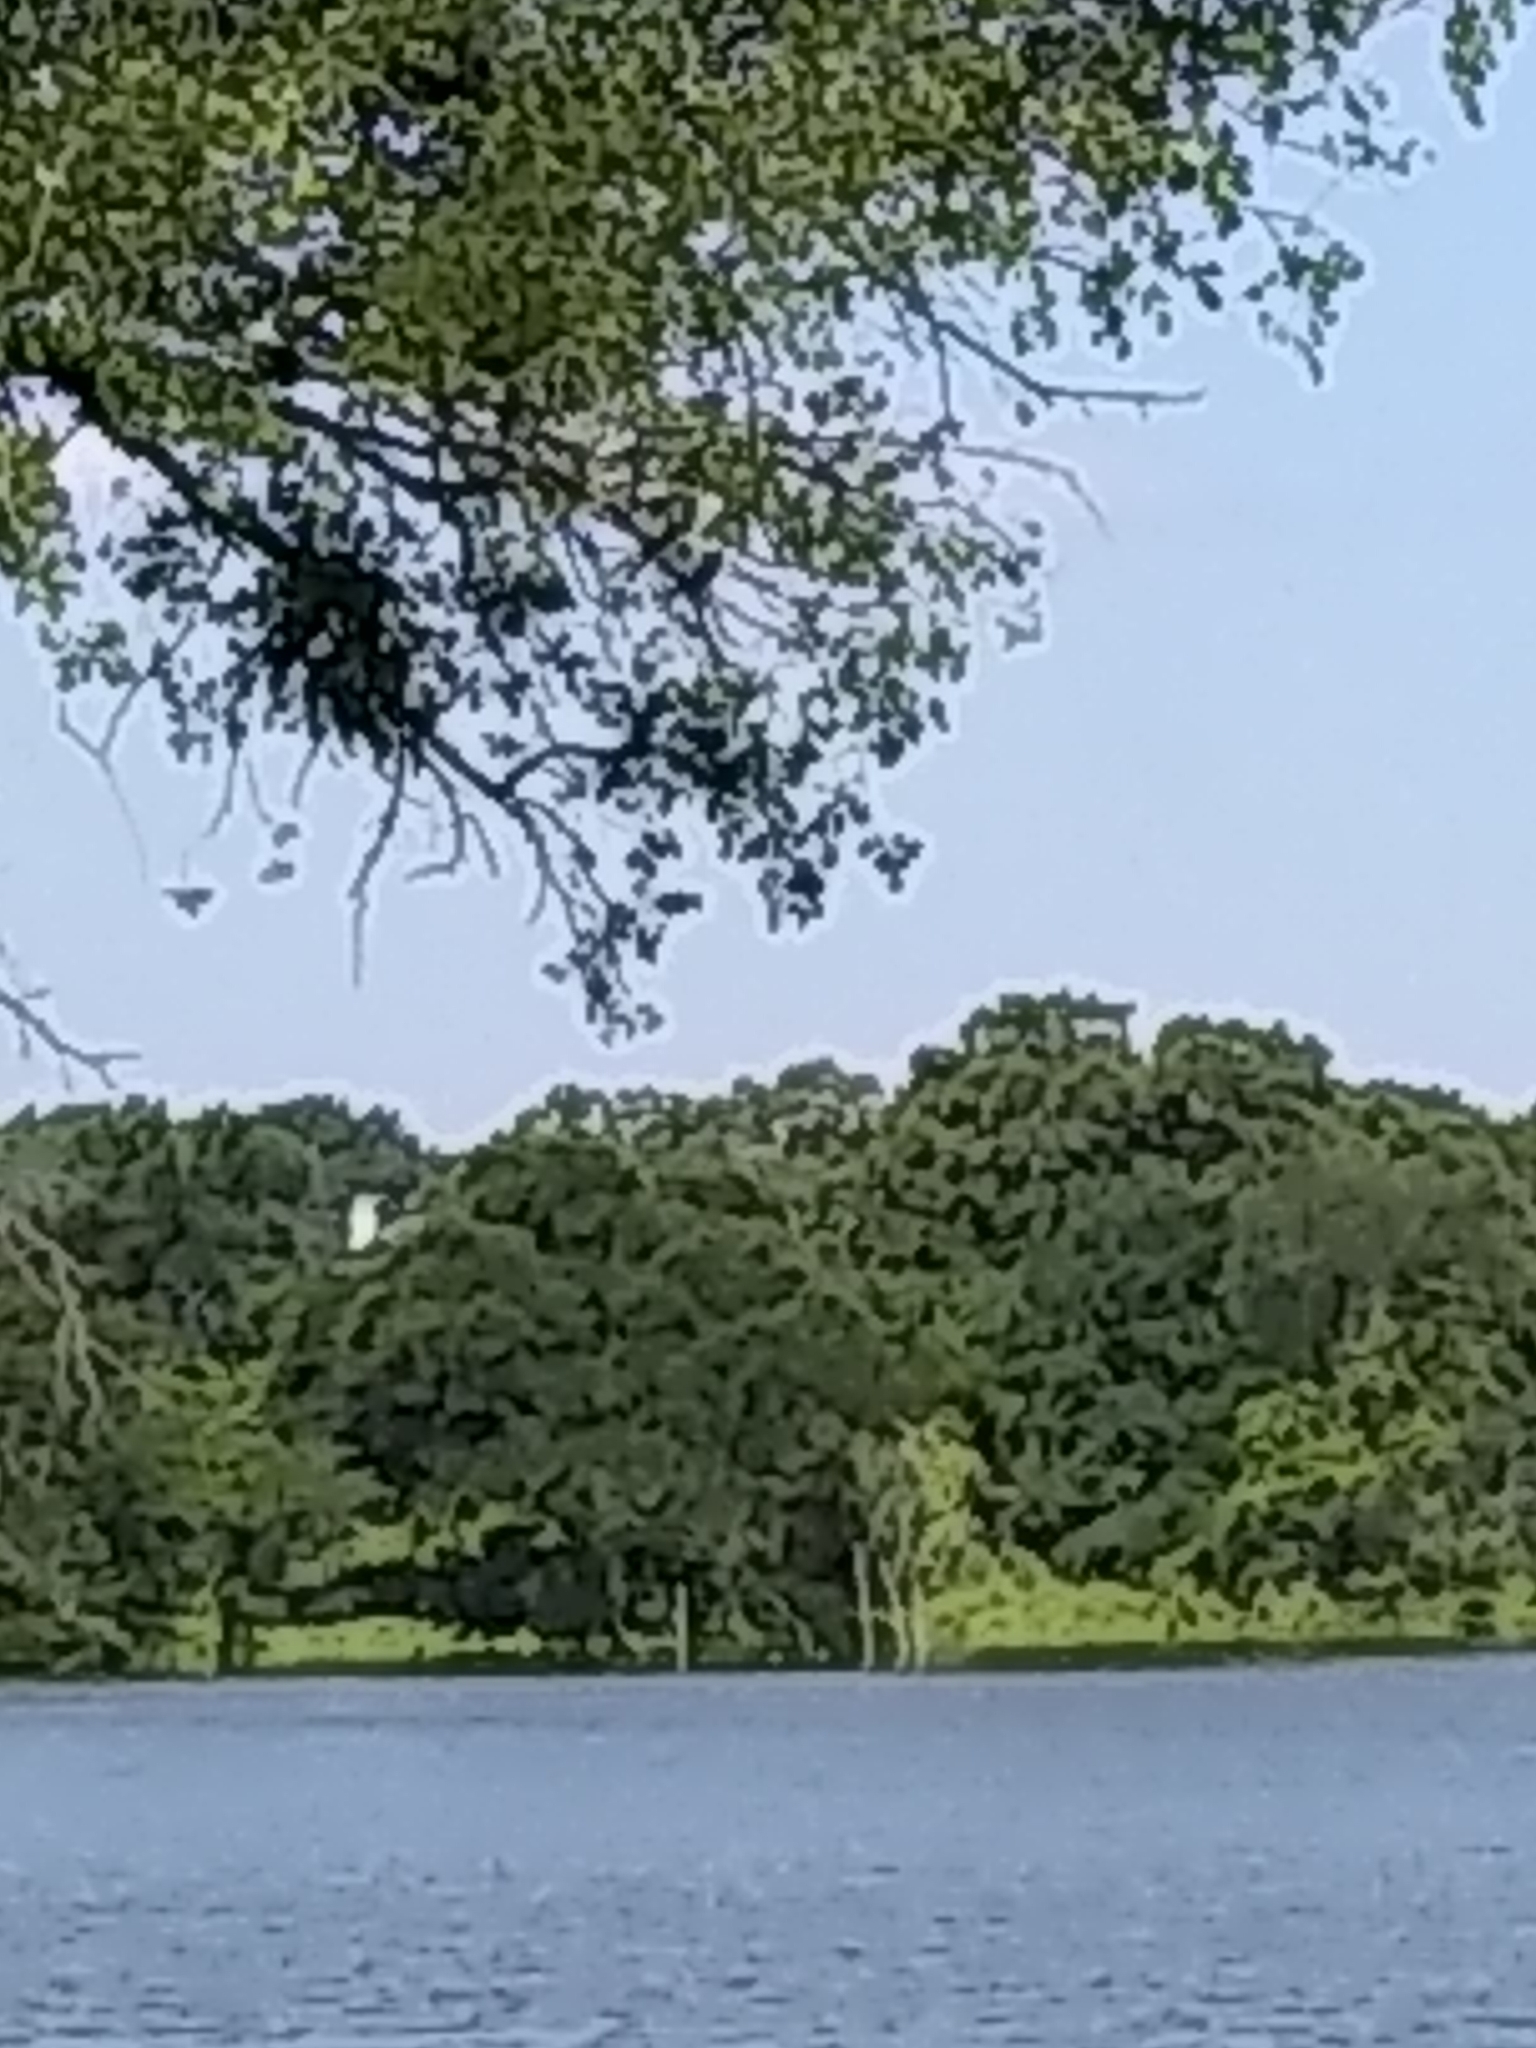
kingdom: Animalia
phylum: Chordata
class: Aves
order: Passeriformes
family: Turdidae
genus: Sialia
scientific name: Sialia sialis
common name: Eastern bluebird
